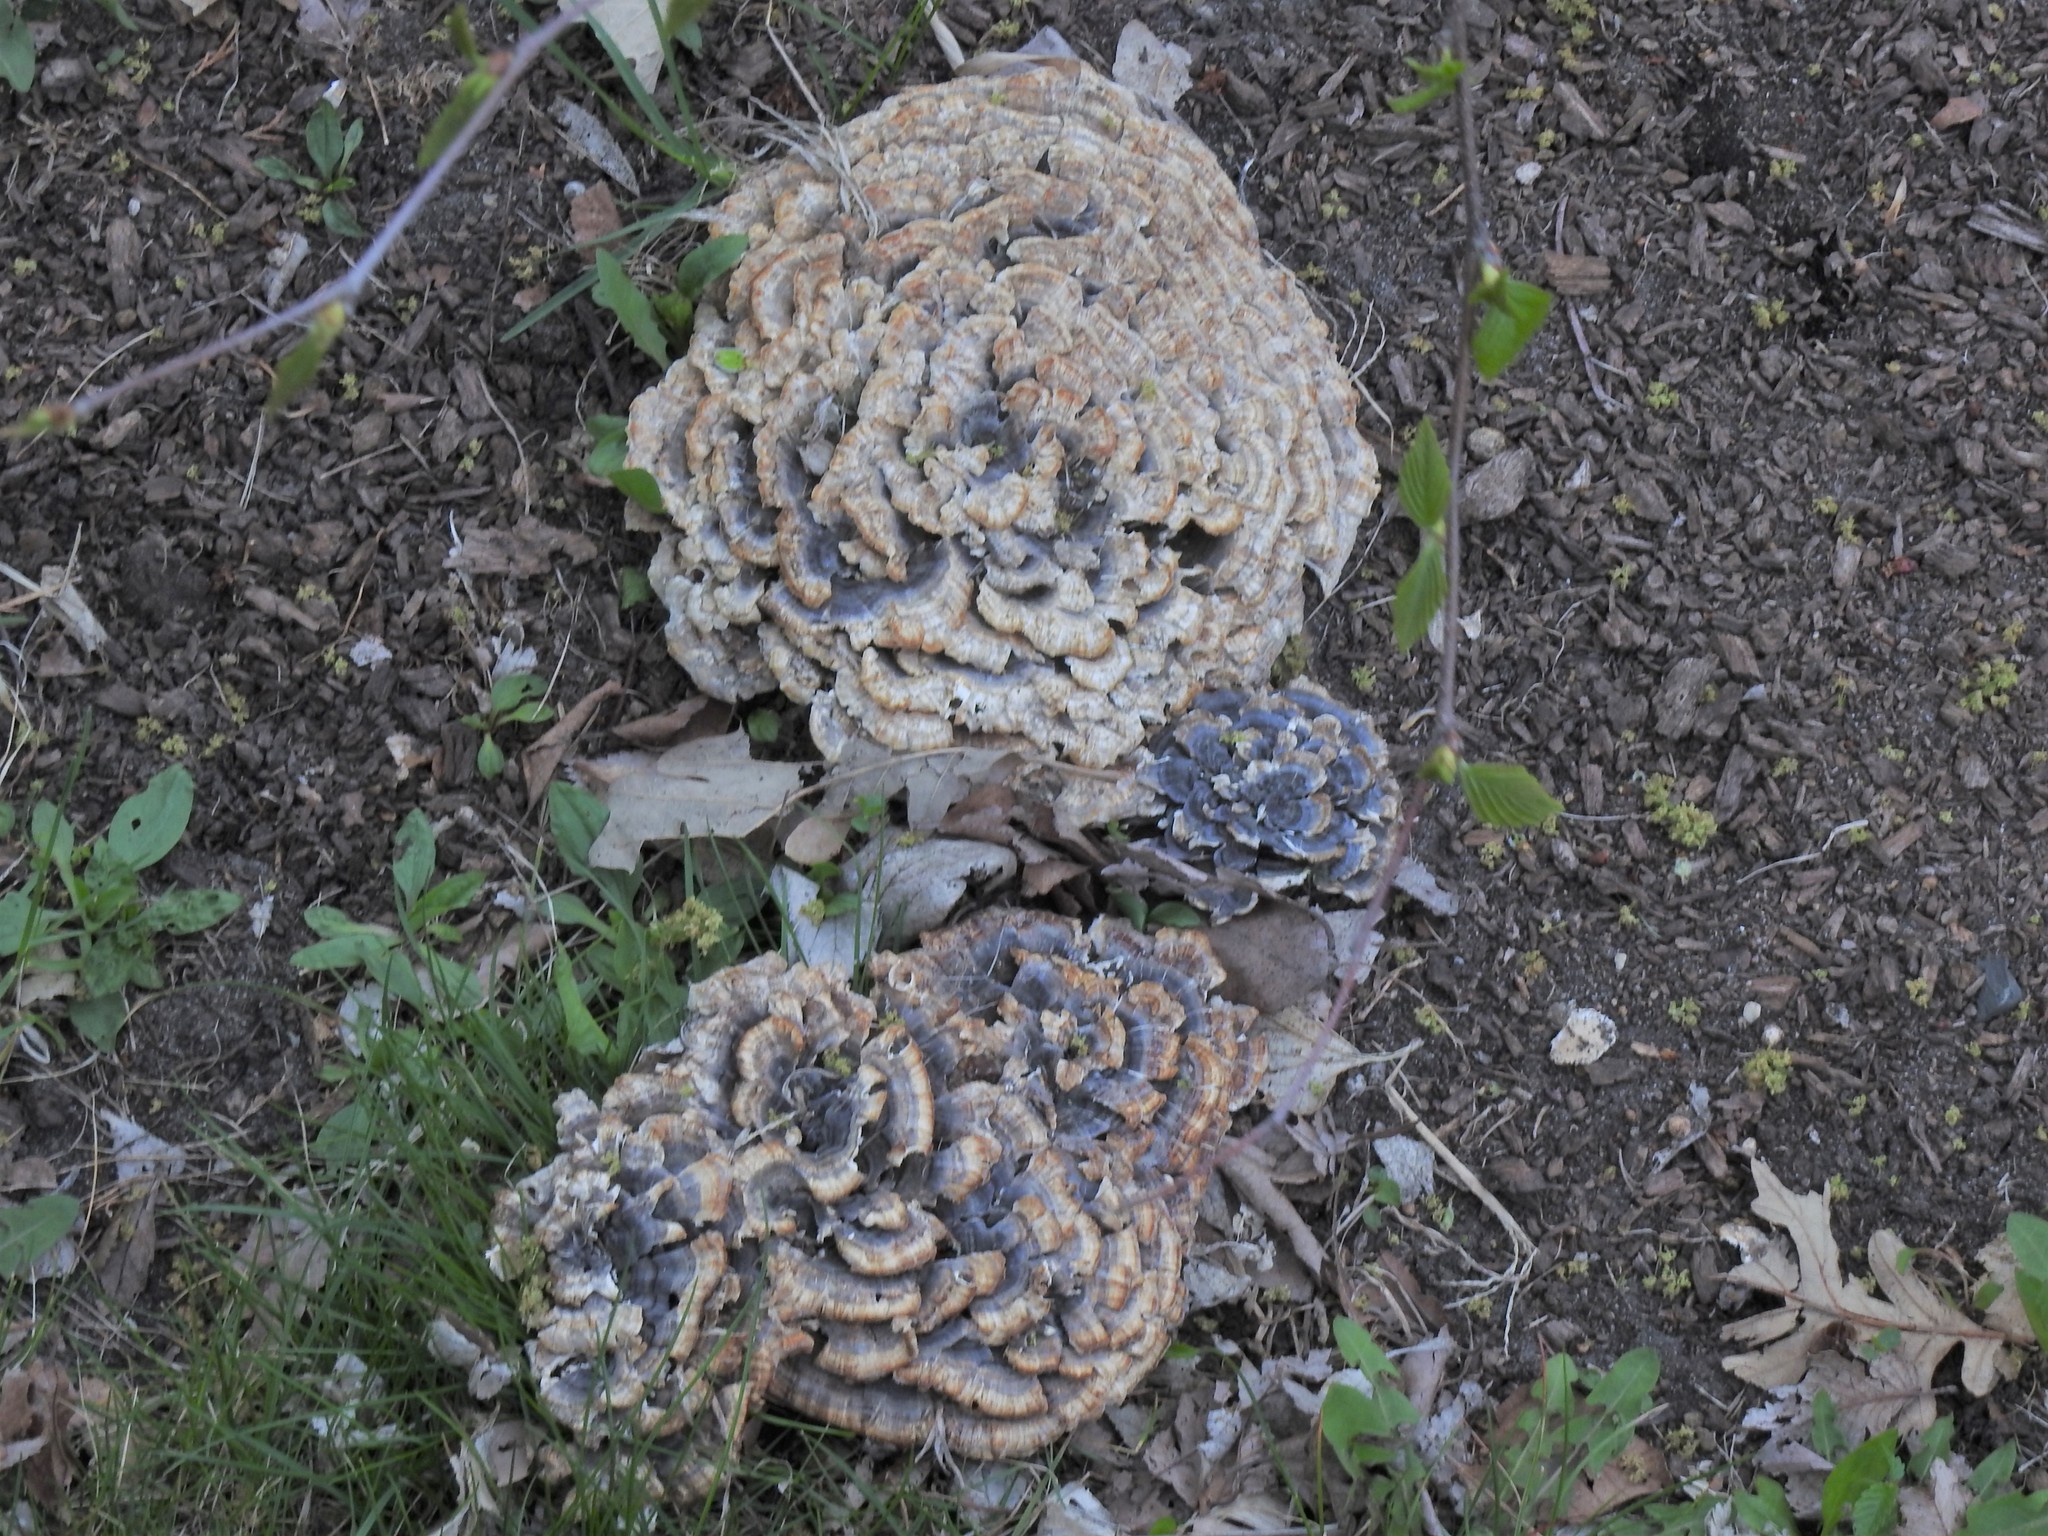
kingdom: Fungi
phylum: Basidiomycota
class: Agaricomycetes
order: Polyporales
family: Polyporaceae
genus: Trametes
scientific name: Trametes versicolor
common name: Turkeytail
